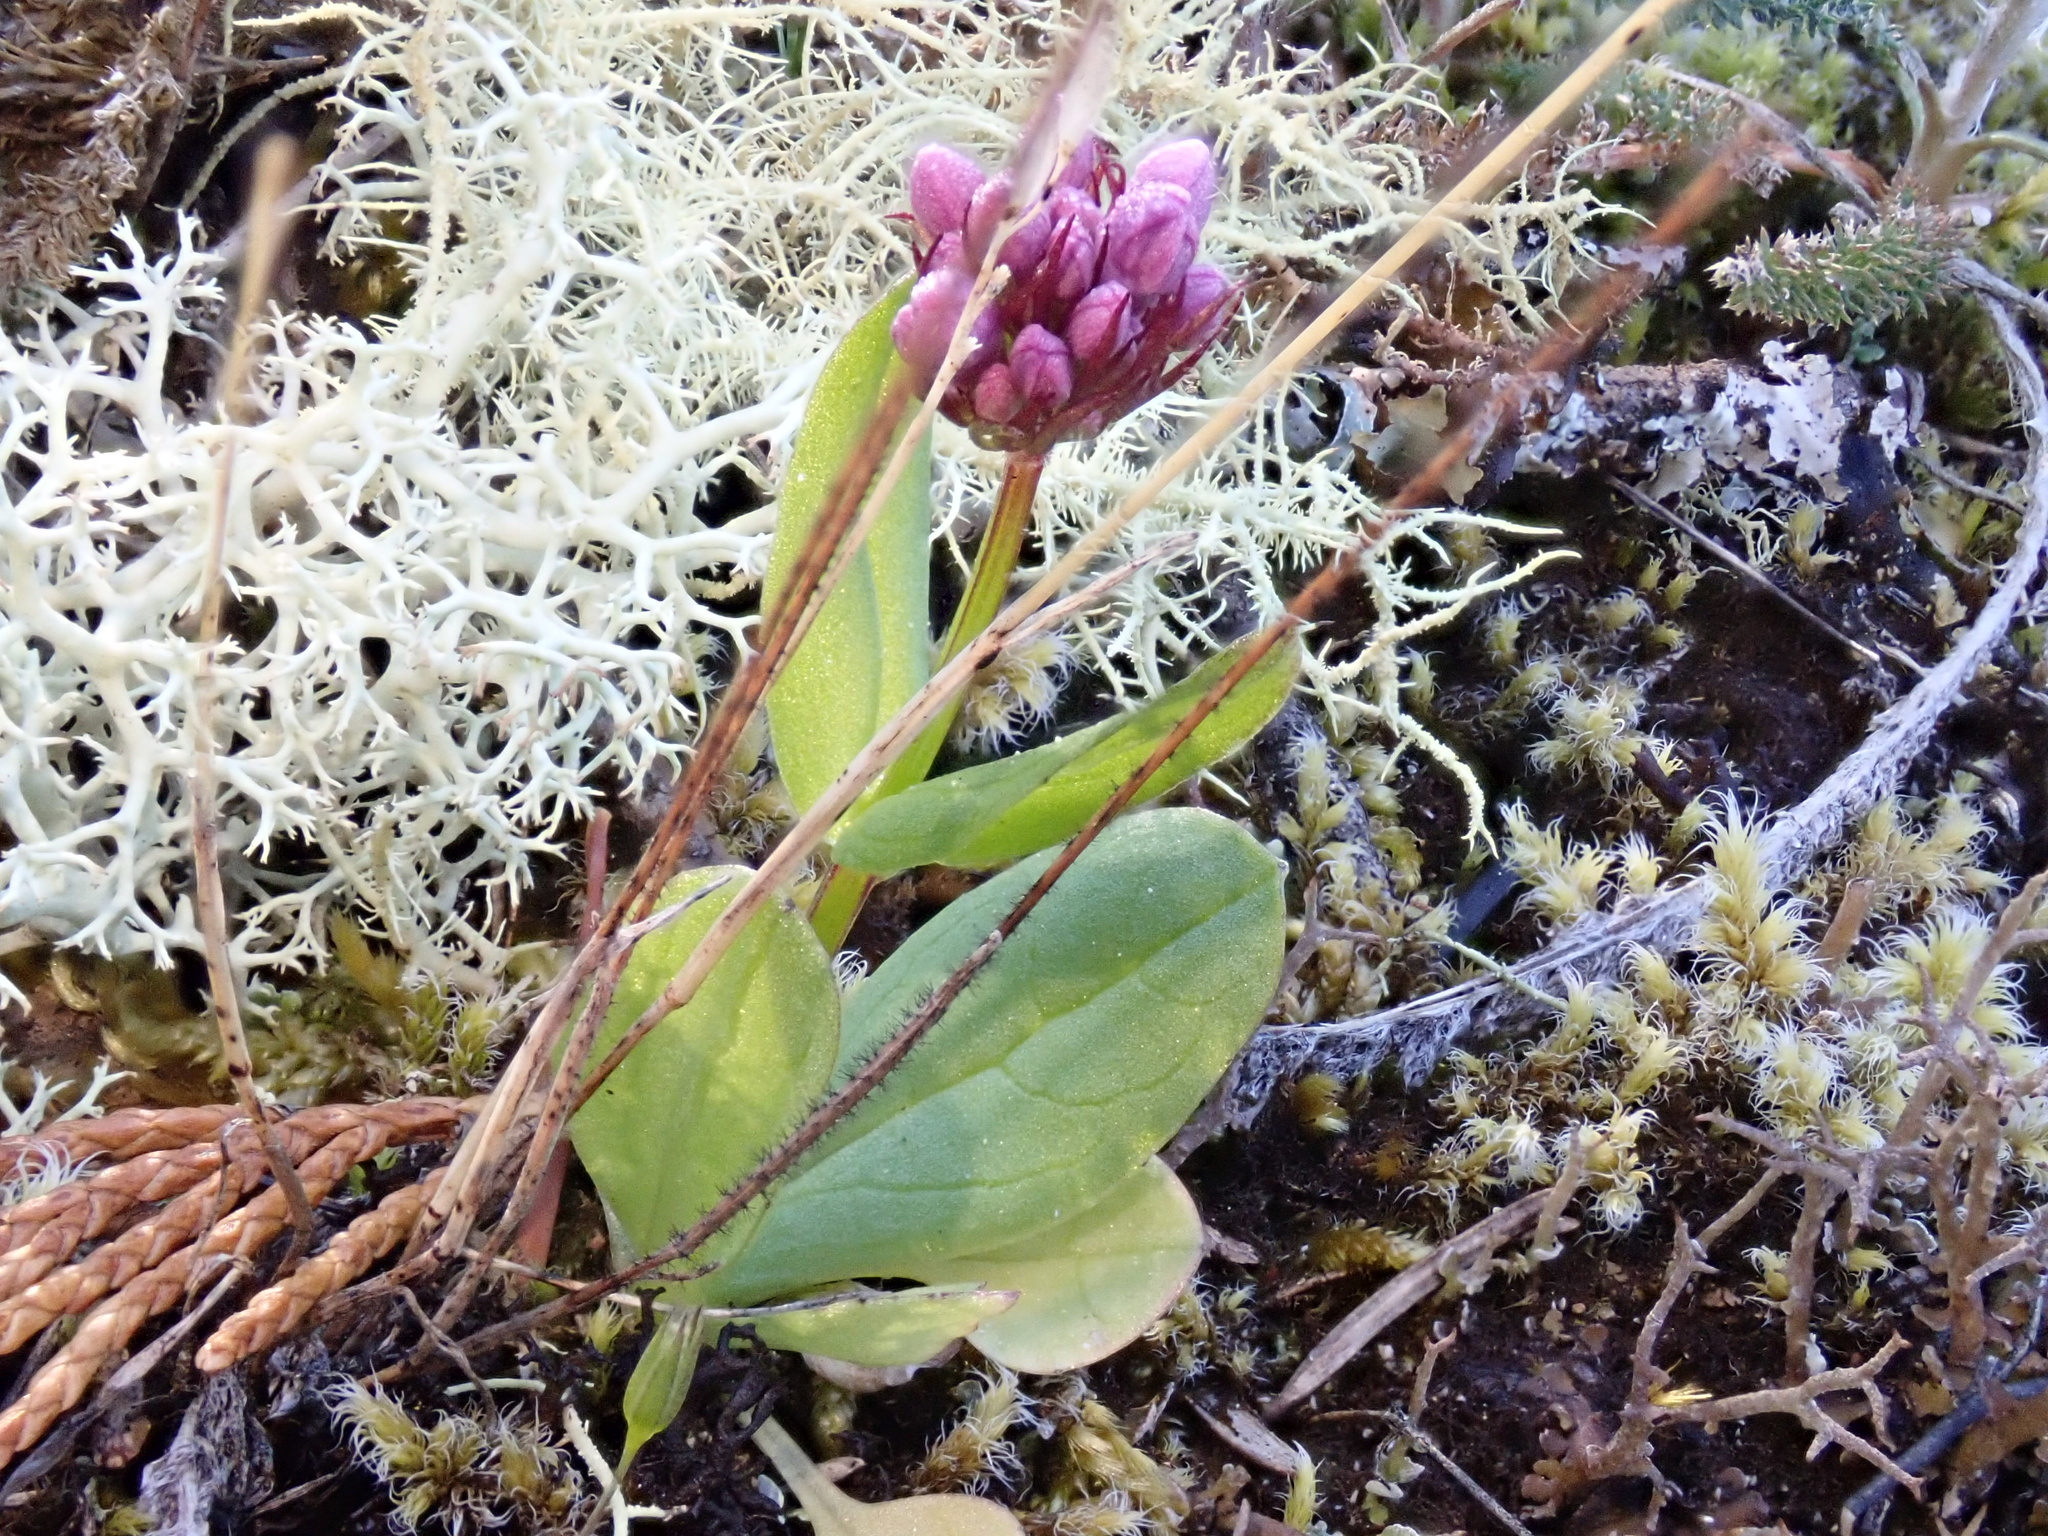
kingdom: Plantae
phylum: Tracheophyta
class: Magnoliopsida
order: Dipsacales
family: Caprifoliaceae
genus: Plectritis
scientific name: Plectritis congesta
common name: Pink plectritis
